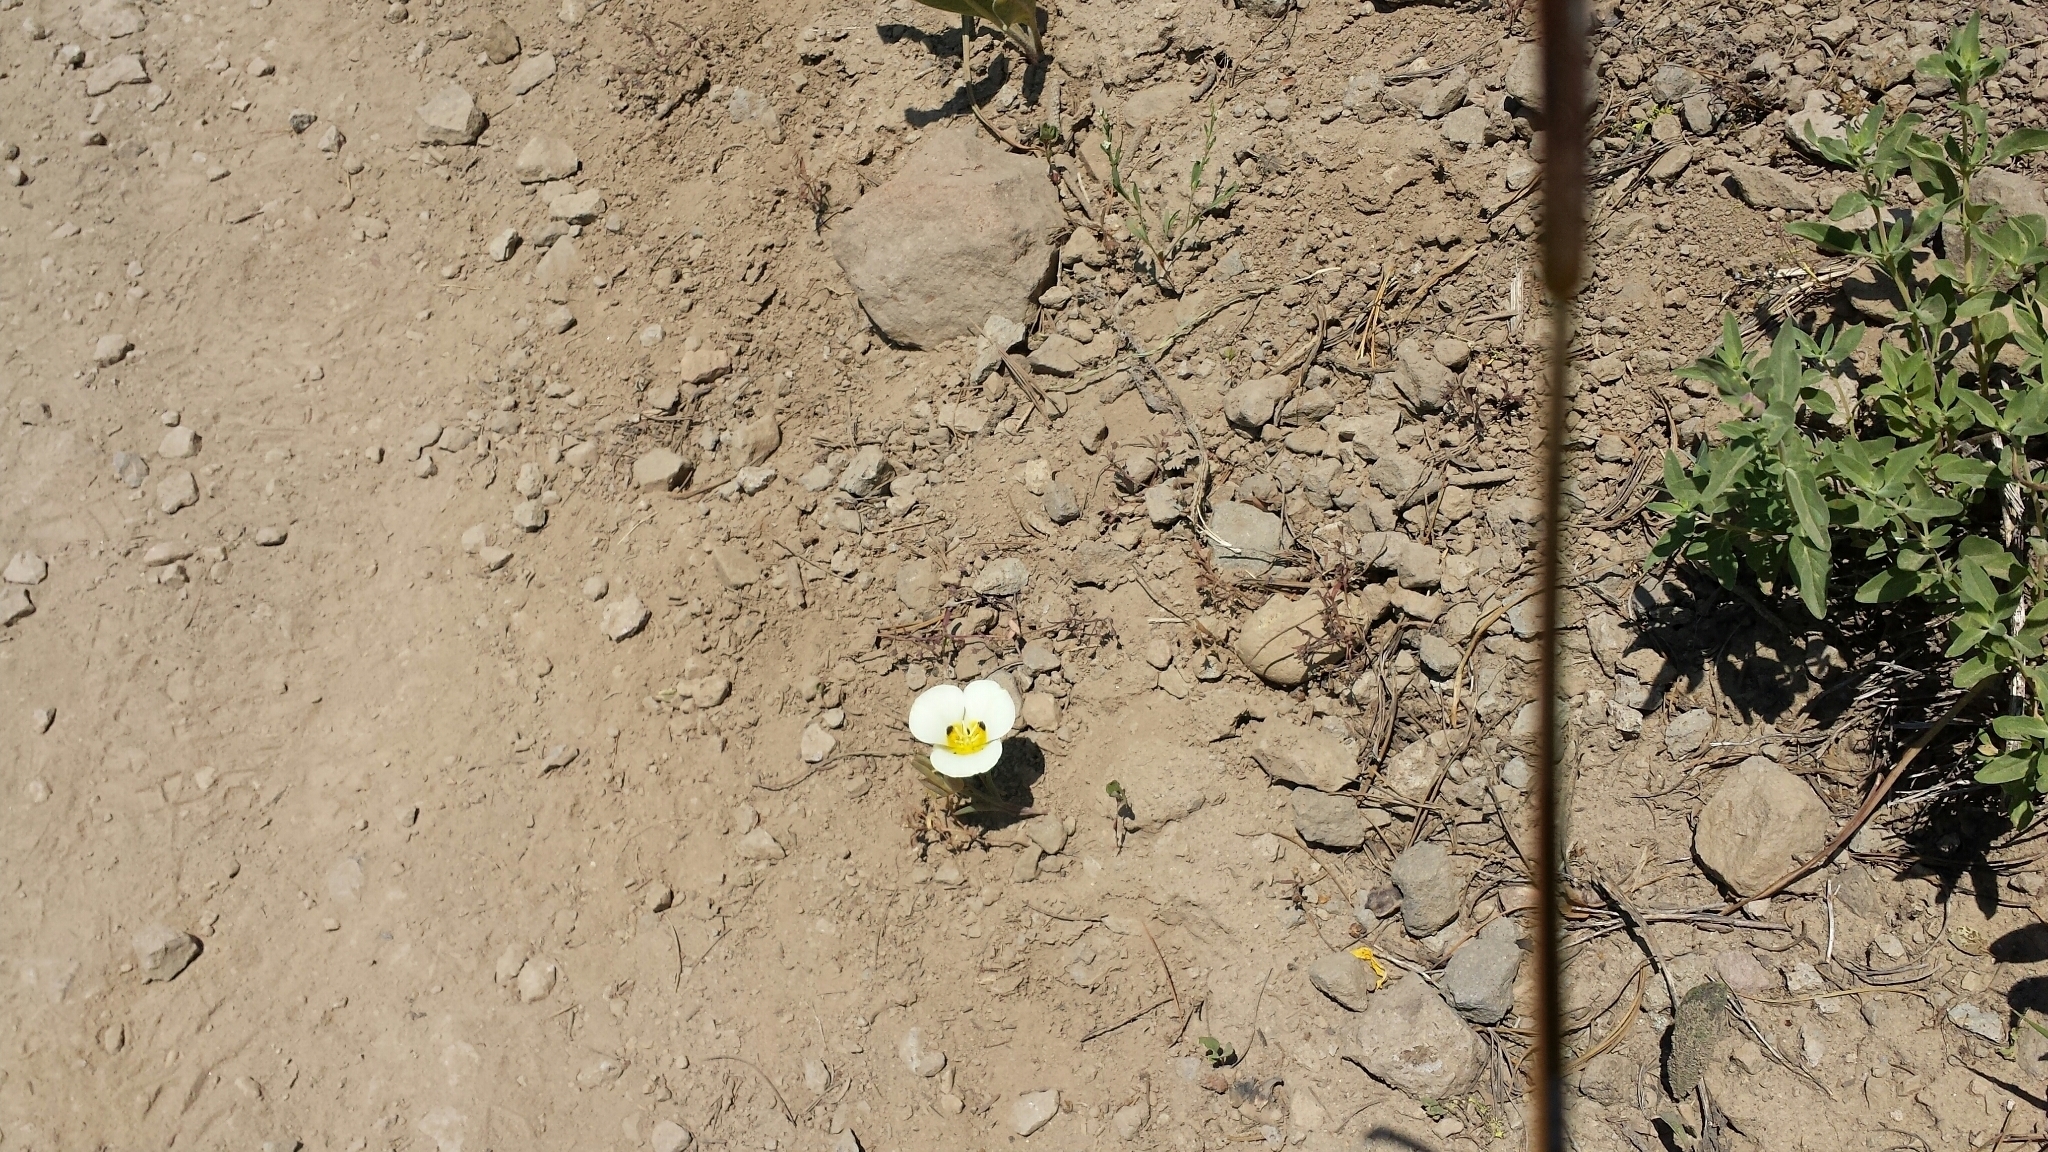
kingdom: Plantae
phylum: Tracheophyta
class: Liliopsida
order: Liliales
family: Liliaceae
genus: Calochortus
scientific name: Calochortus leichtlinii
